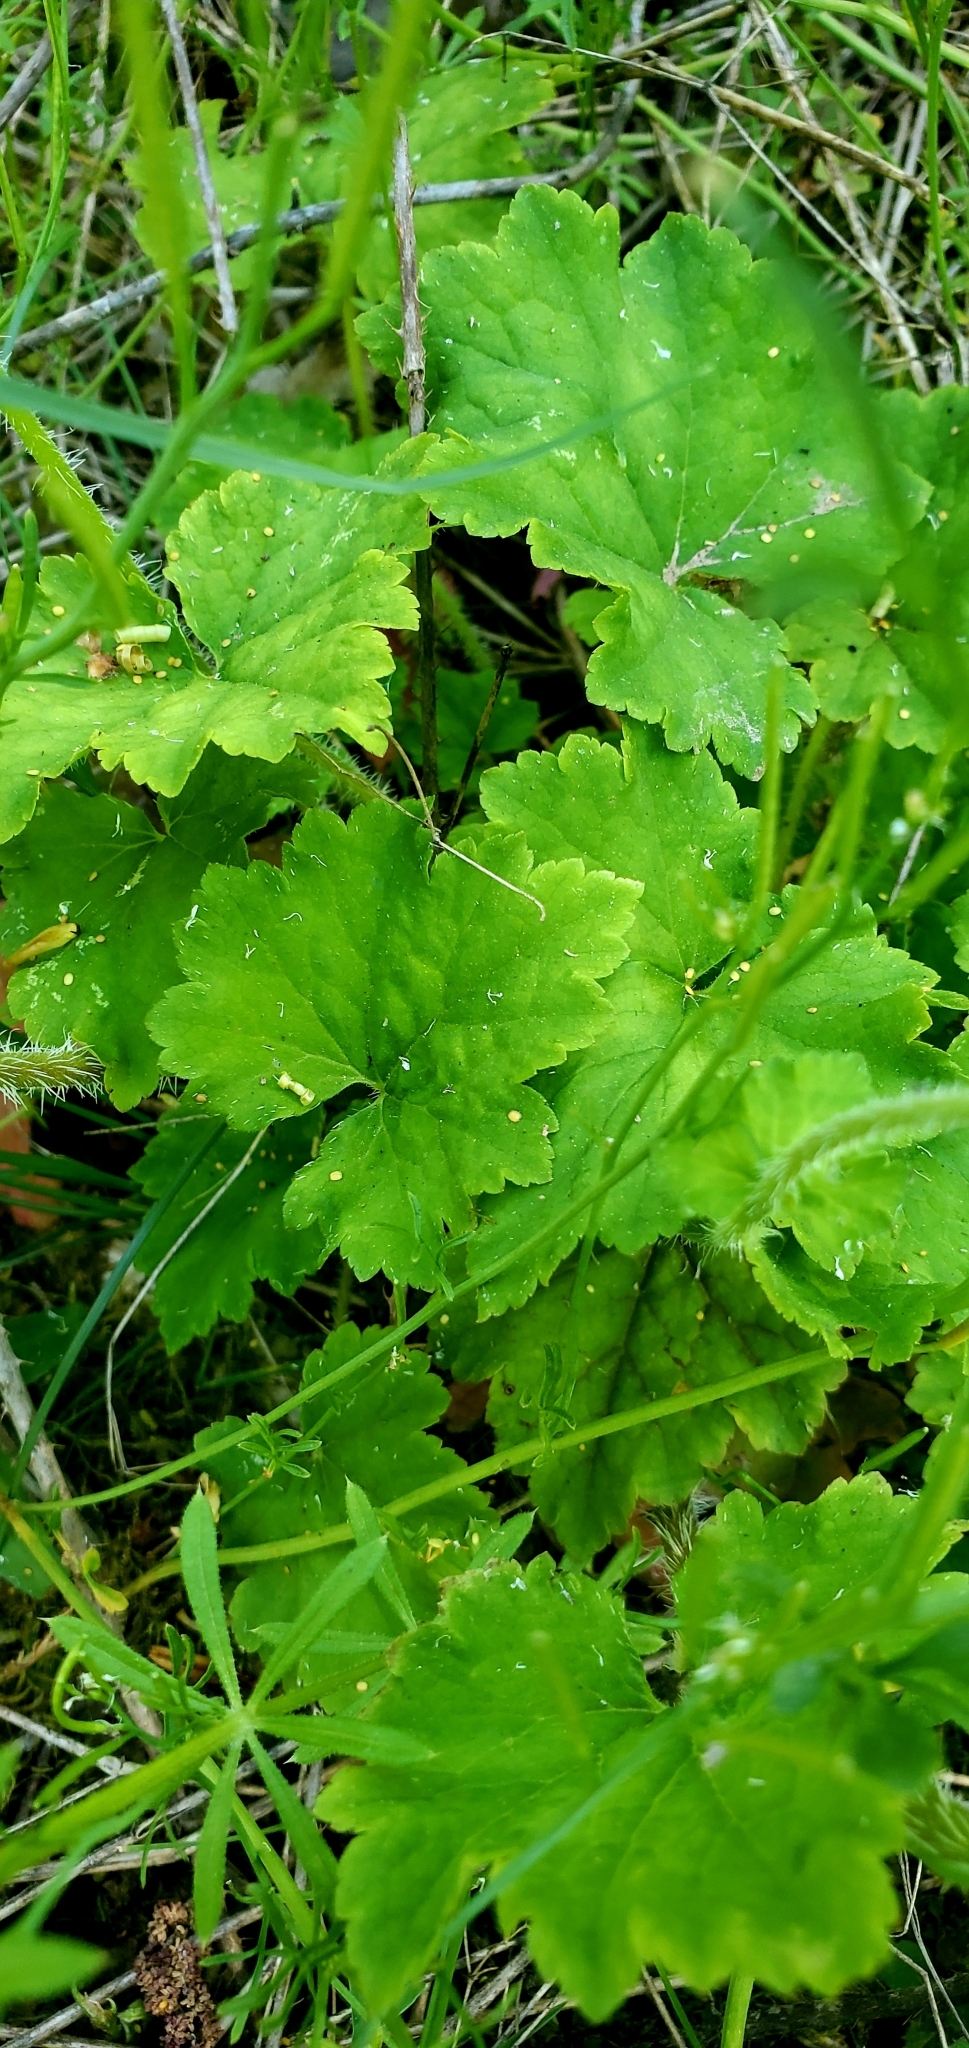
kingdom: Plantae
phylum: Tracheophyta
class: Magnoliopsida
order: Saxifragales
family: Saxifragaceae
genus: Tellima
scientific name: Tellima grandiflora
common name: Fringecups
